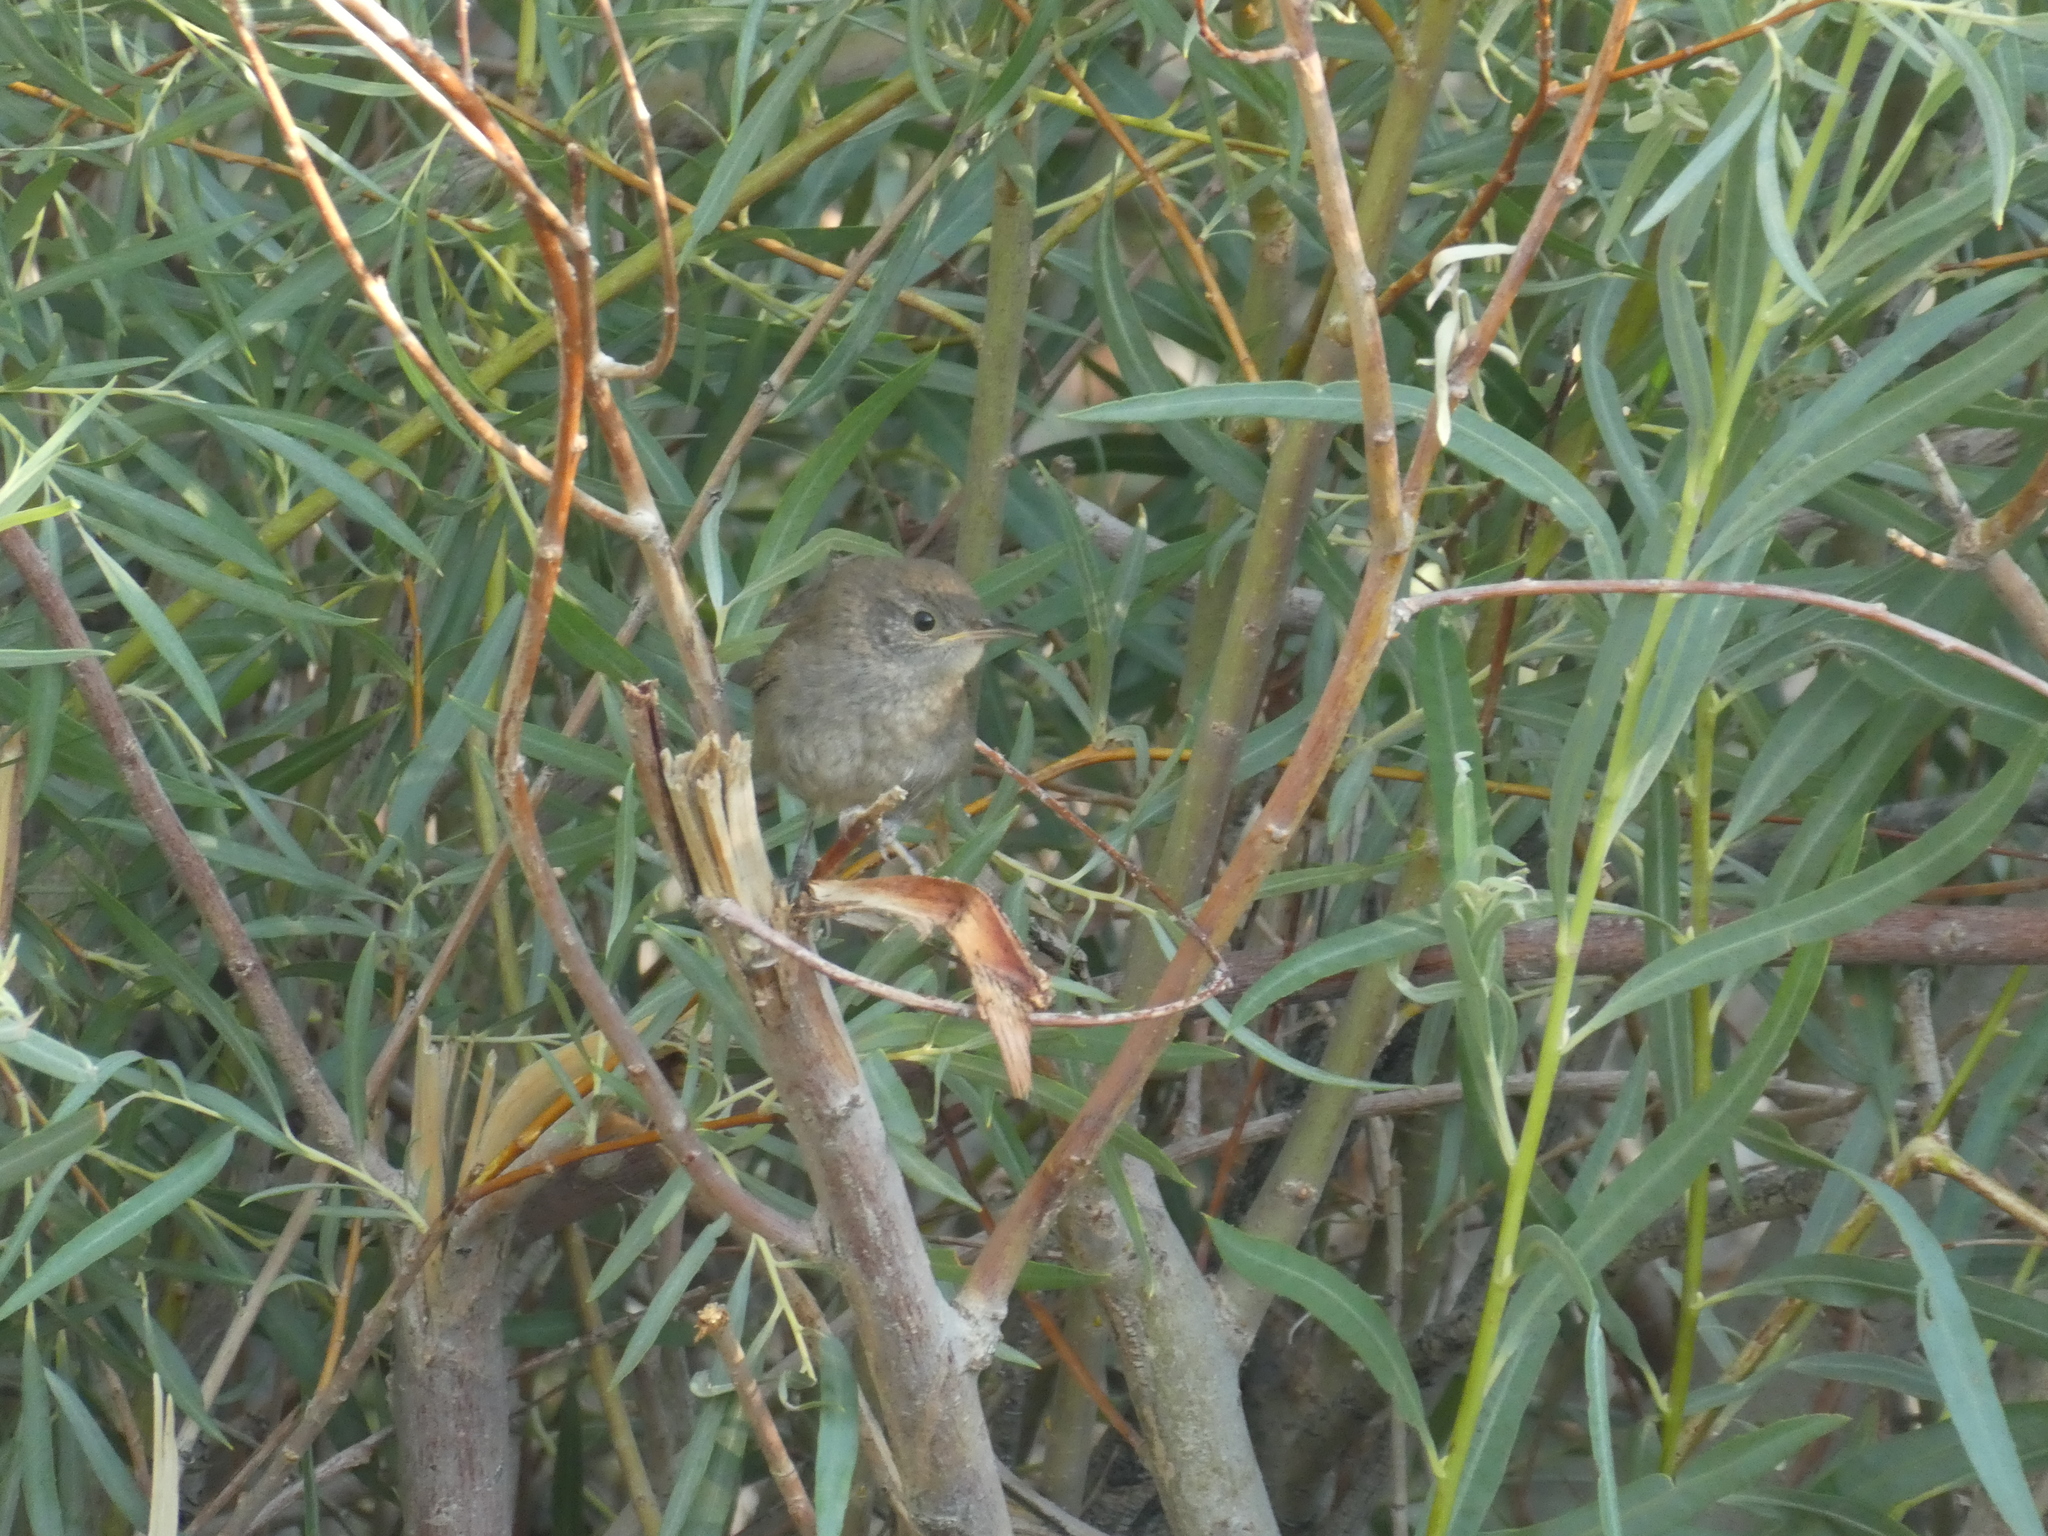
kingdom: Animalia
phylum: Chordata
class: Aves
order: Passeriformes
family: Troglodytidae
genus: Troglodytes
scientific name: Troglodytes aedon
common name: House wren
